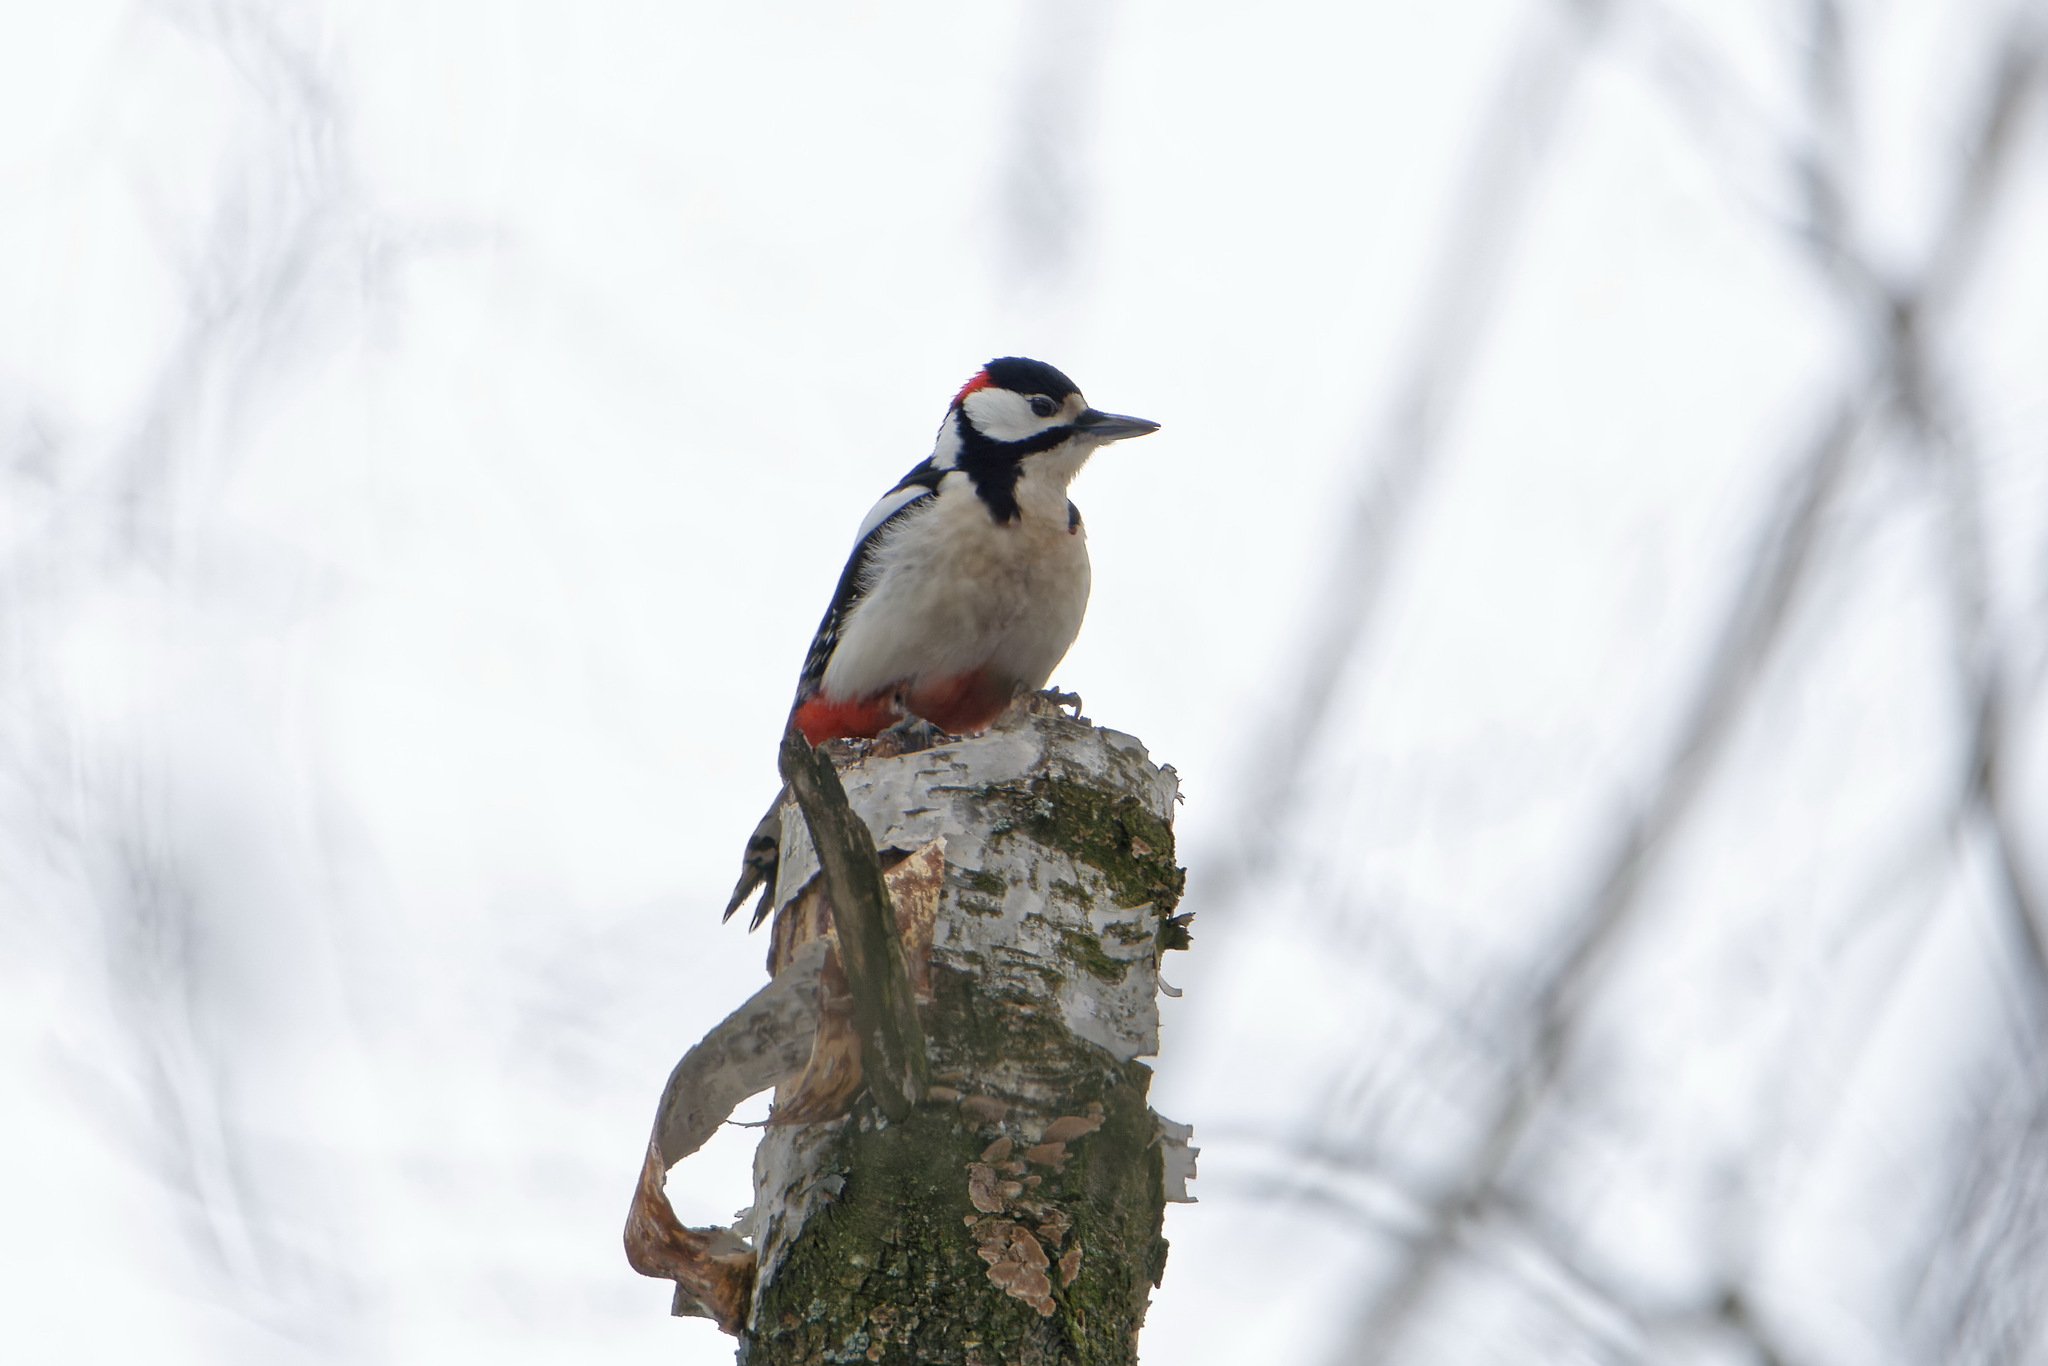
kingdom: Animalia
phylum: Chordata
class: Aves
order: Piciformes
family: Picidae
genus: Dendrocopos
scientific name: Dendrocopos major
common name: Great spotted woodpecker
